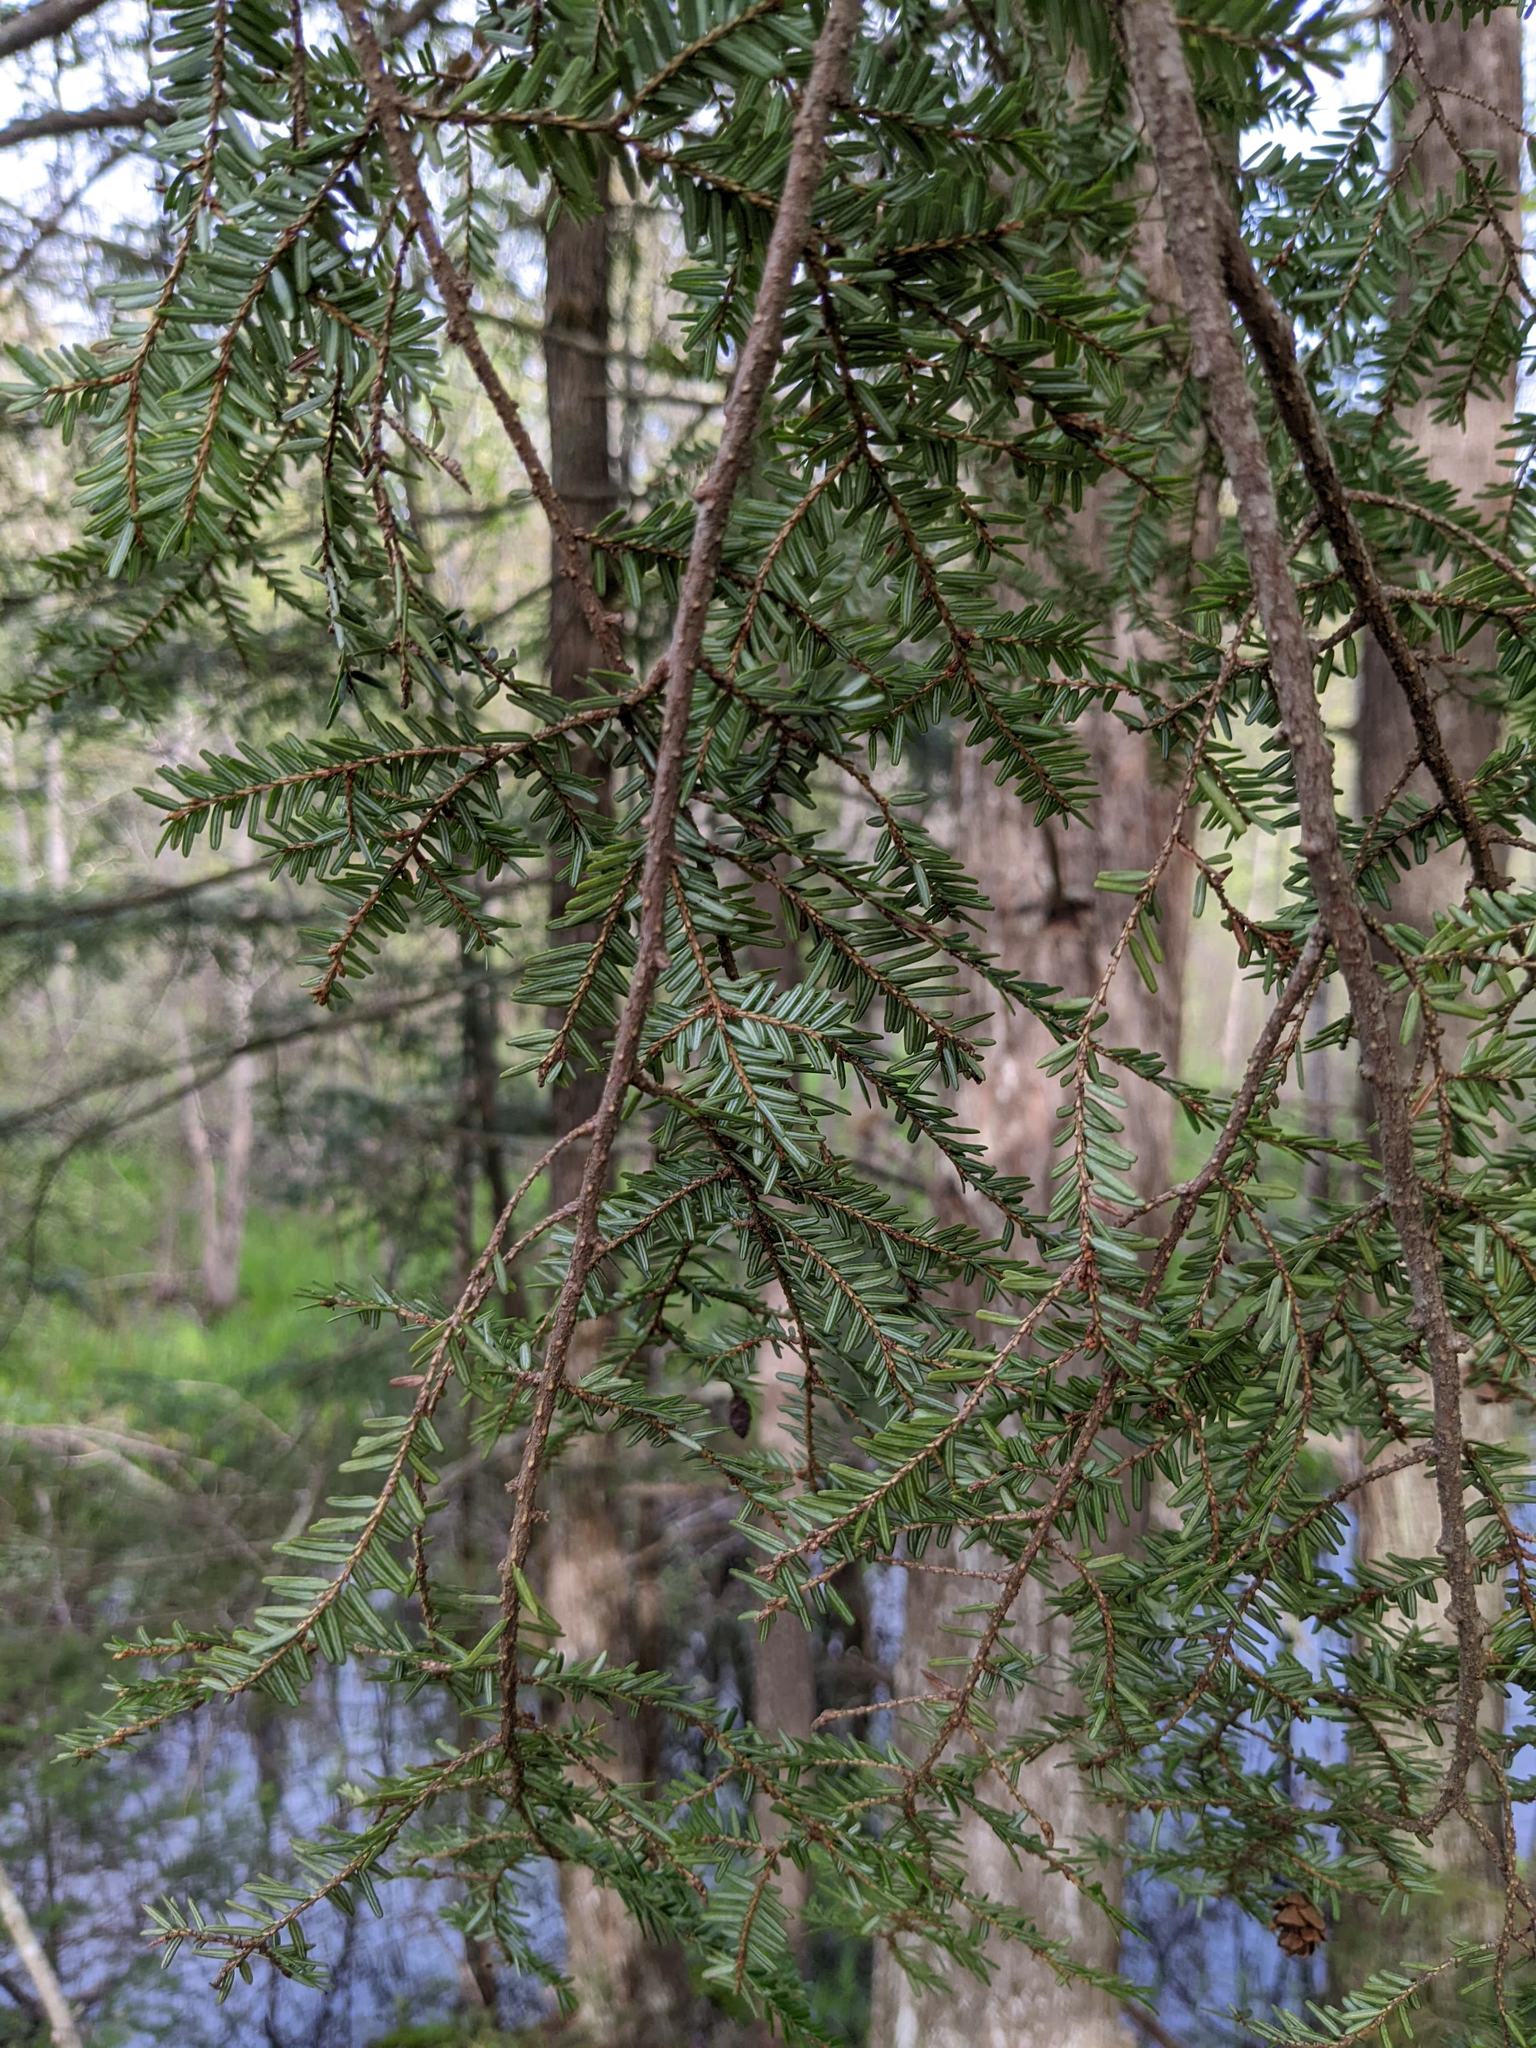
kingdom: Plantae
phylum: Tracheophyta
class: Pinopsida
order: Pinales
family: Pinaceae
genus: Tsuga
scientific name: Tsuga canadensis
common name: Eastern hemlock
